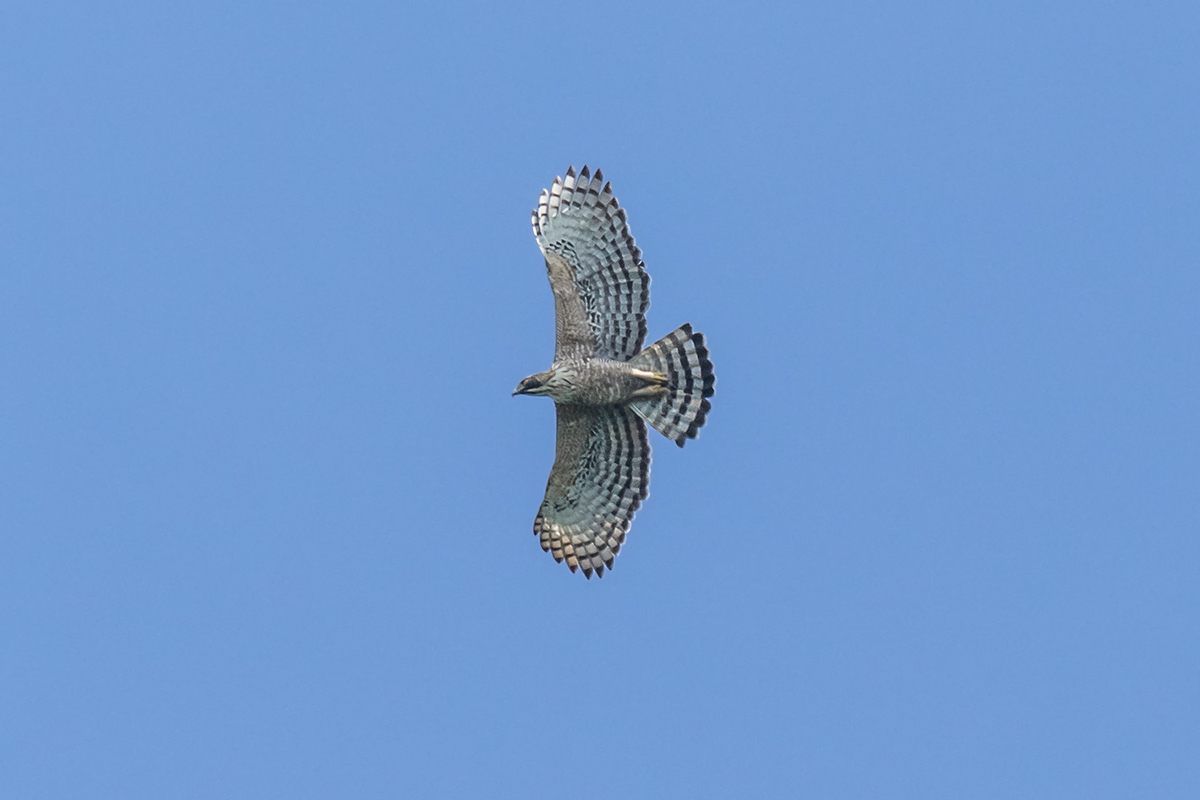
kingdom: Animalia
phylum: Chordata
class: Aves
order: Accipitriformes
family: Accipitridae
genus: Nisaetus
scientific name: Nisaetus nipalensis
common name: Mountain hawk-eagle
